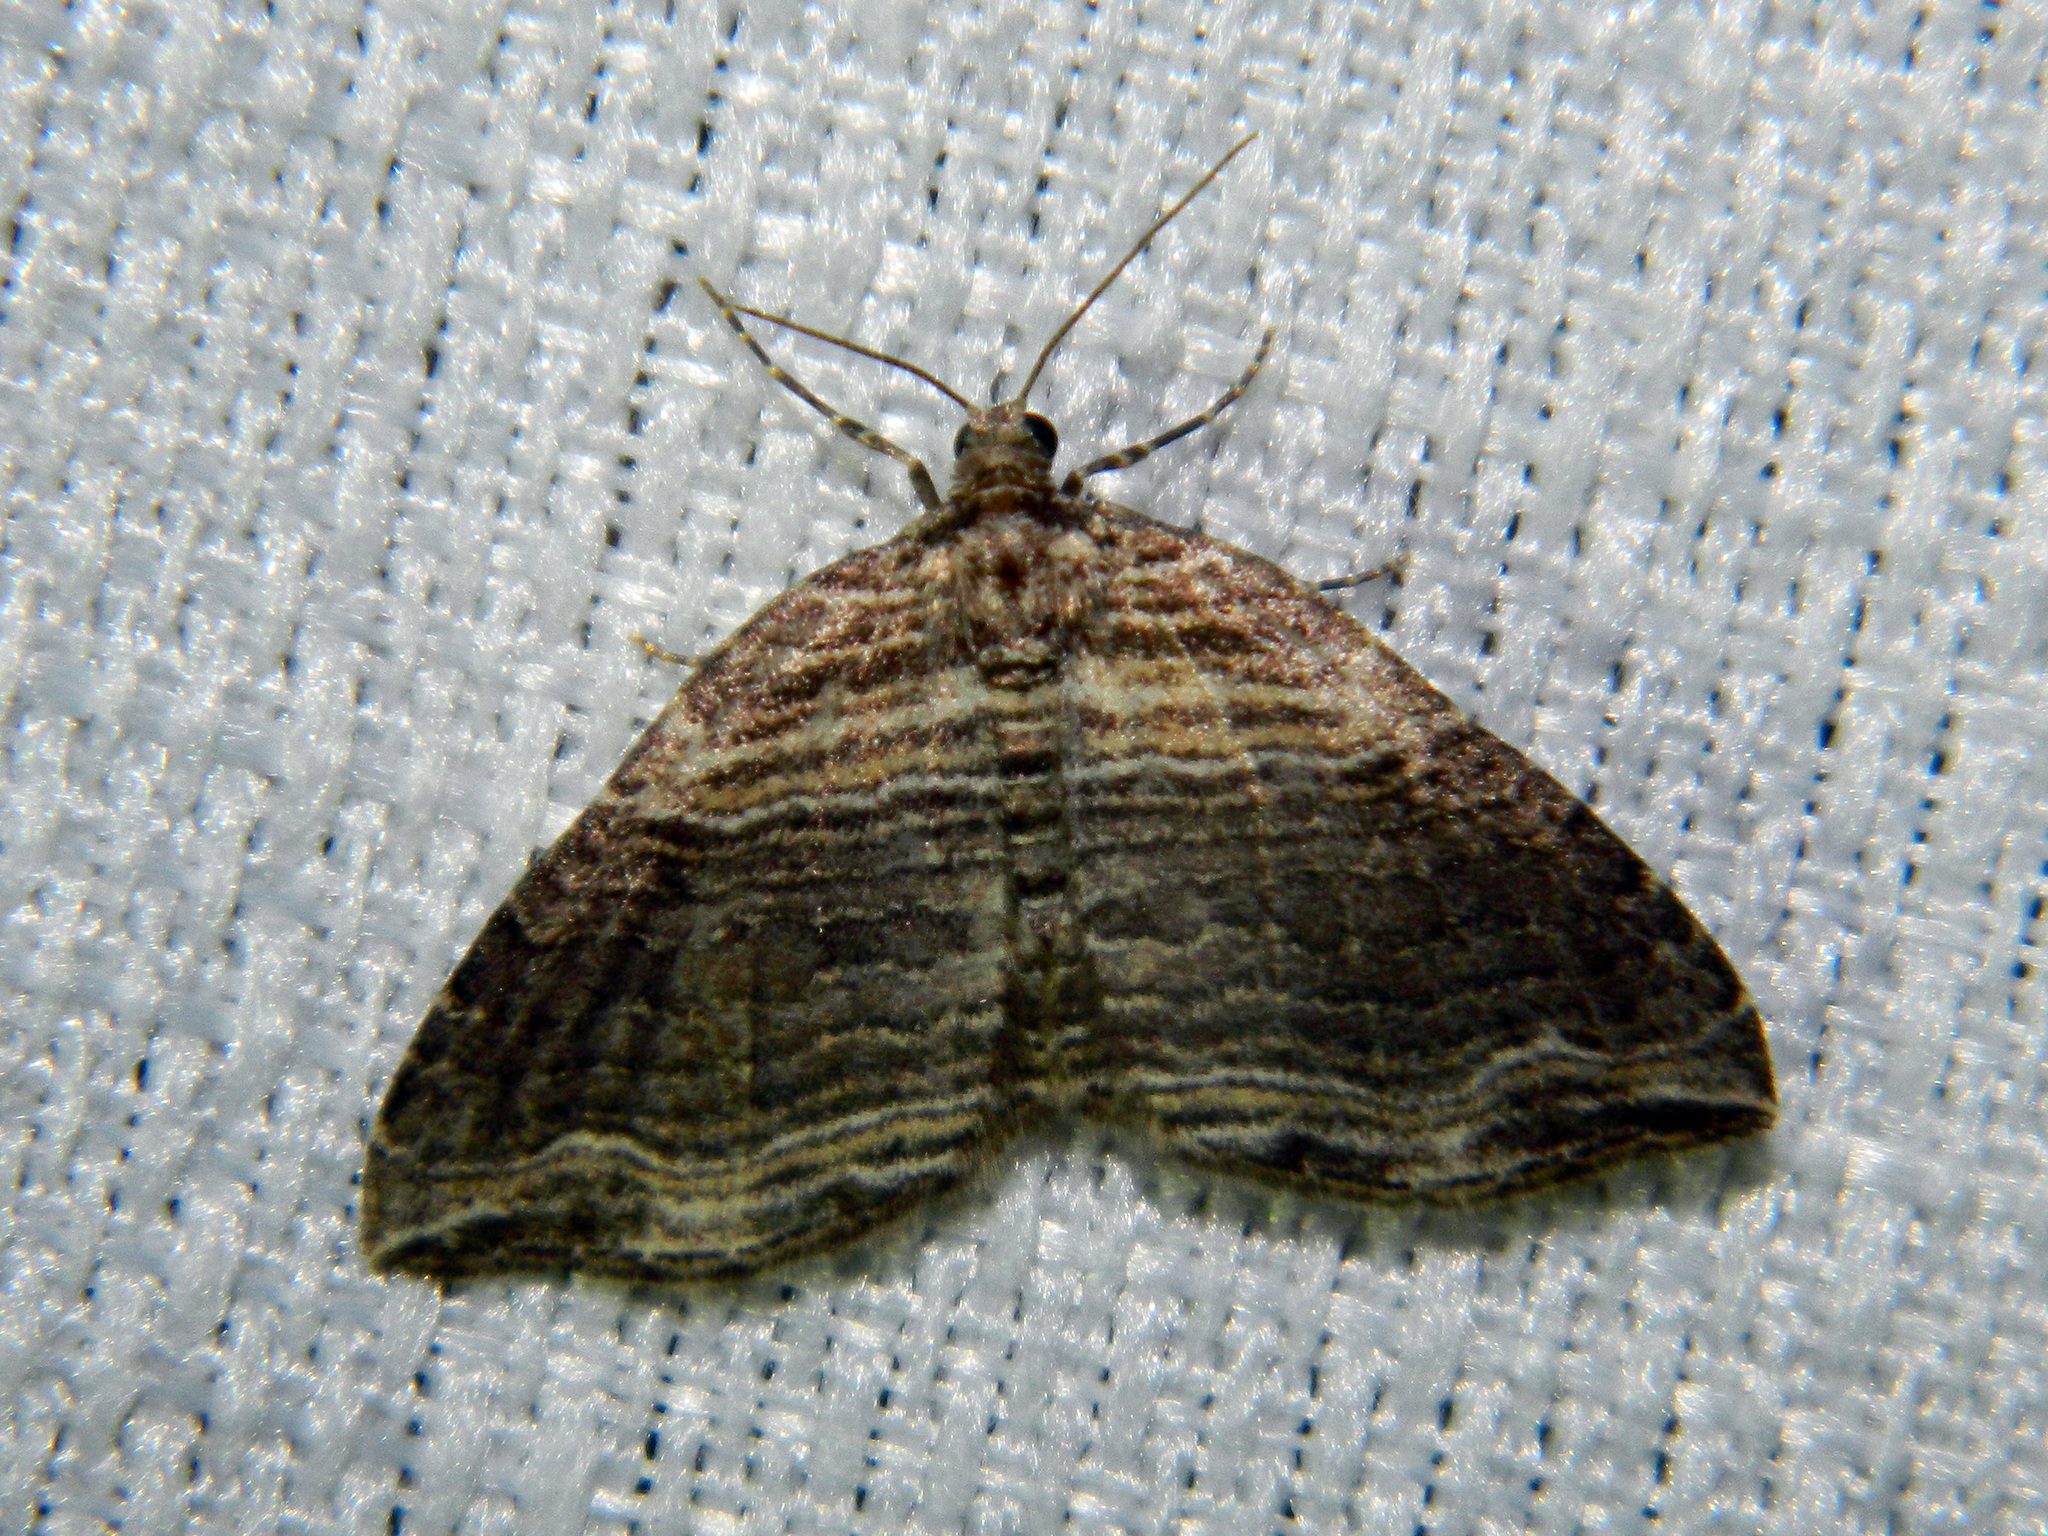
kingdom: Animalia
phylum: Arthropoda
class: Insecta
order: Lepidoptera
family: Geometridae
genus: Anticlea
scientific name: Anticlea multiferata
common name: Many-lined carpet
